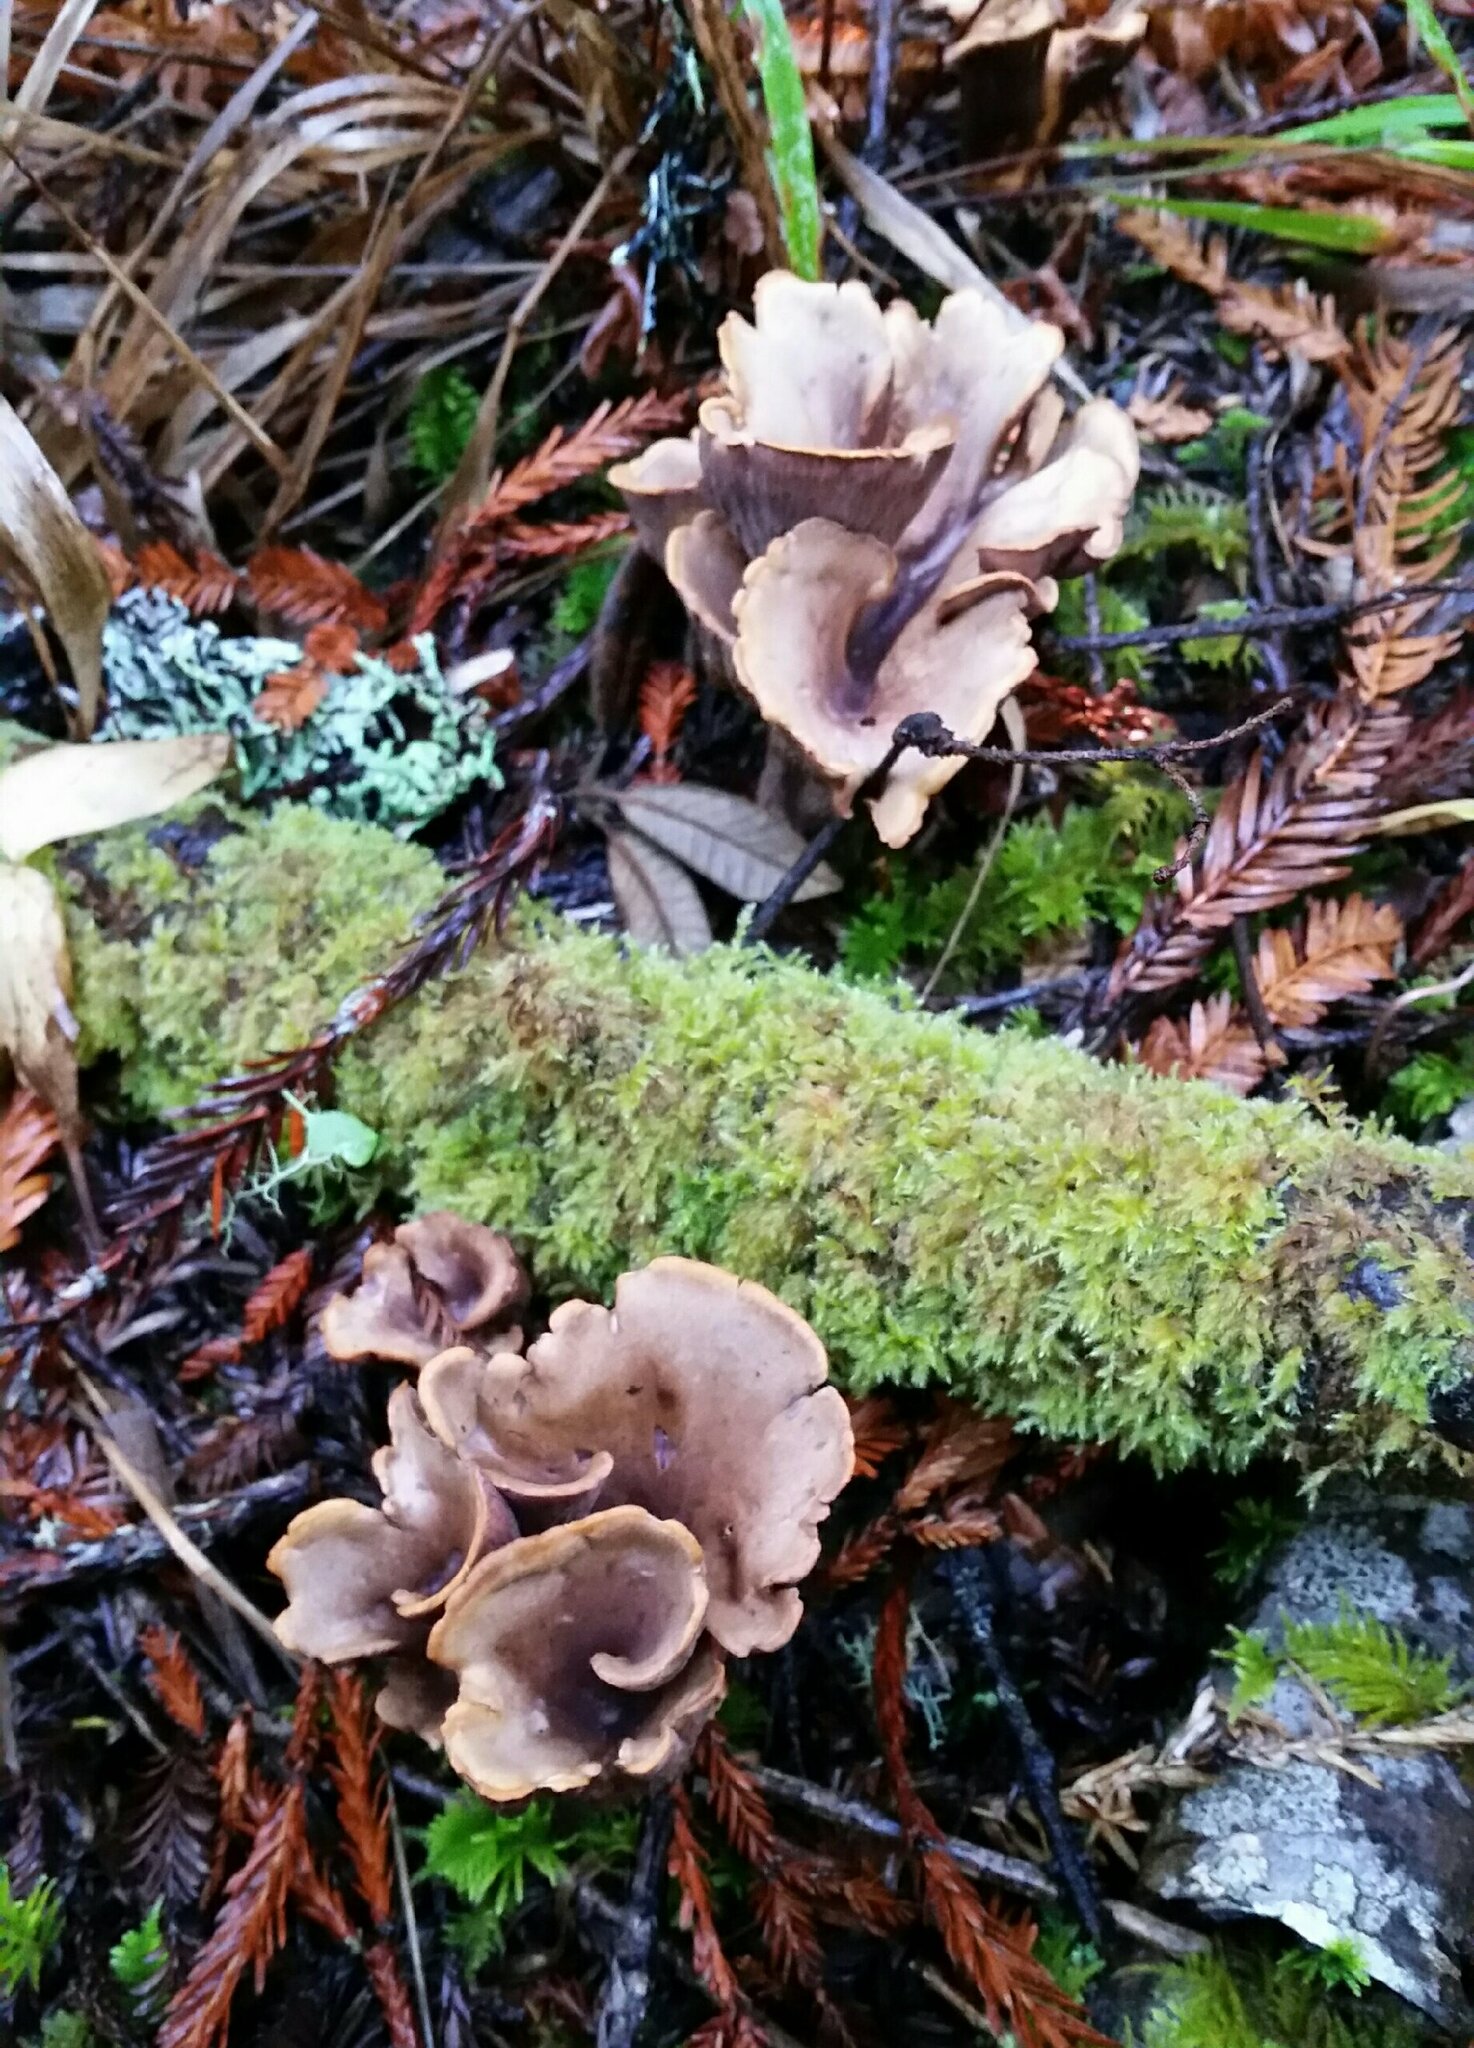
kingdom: Fungi
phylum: Basidiomycota
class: Agaricomycetes
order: Gomphales
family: Gomphaceae
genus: Gomphus
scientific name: Gomphus clavatus
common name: Pig's ear
